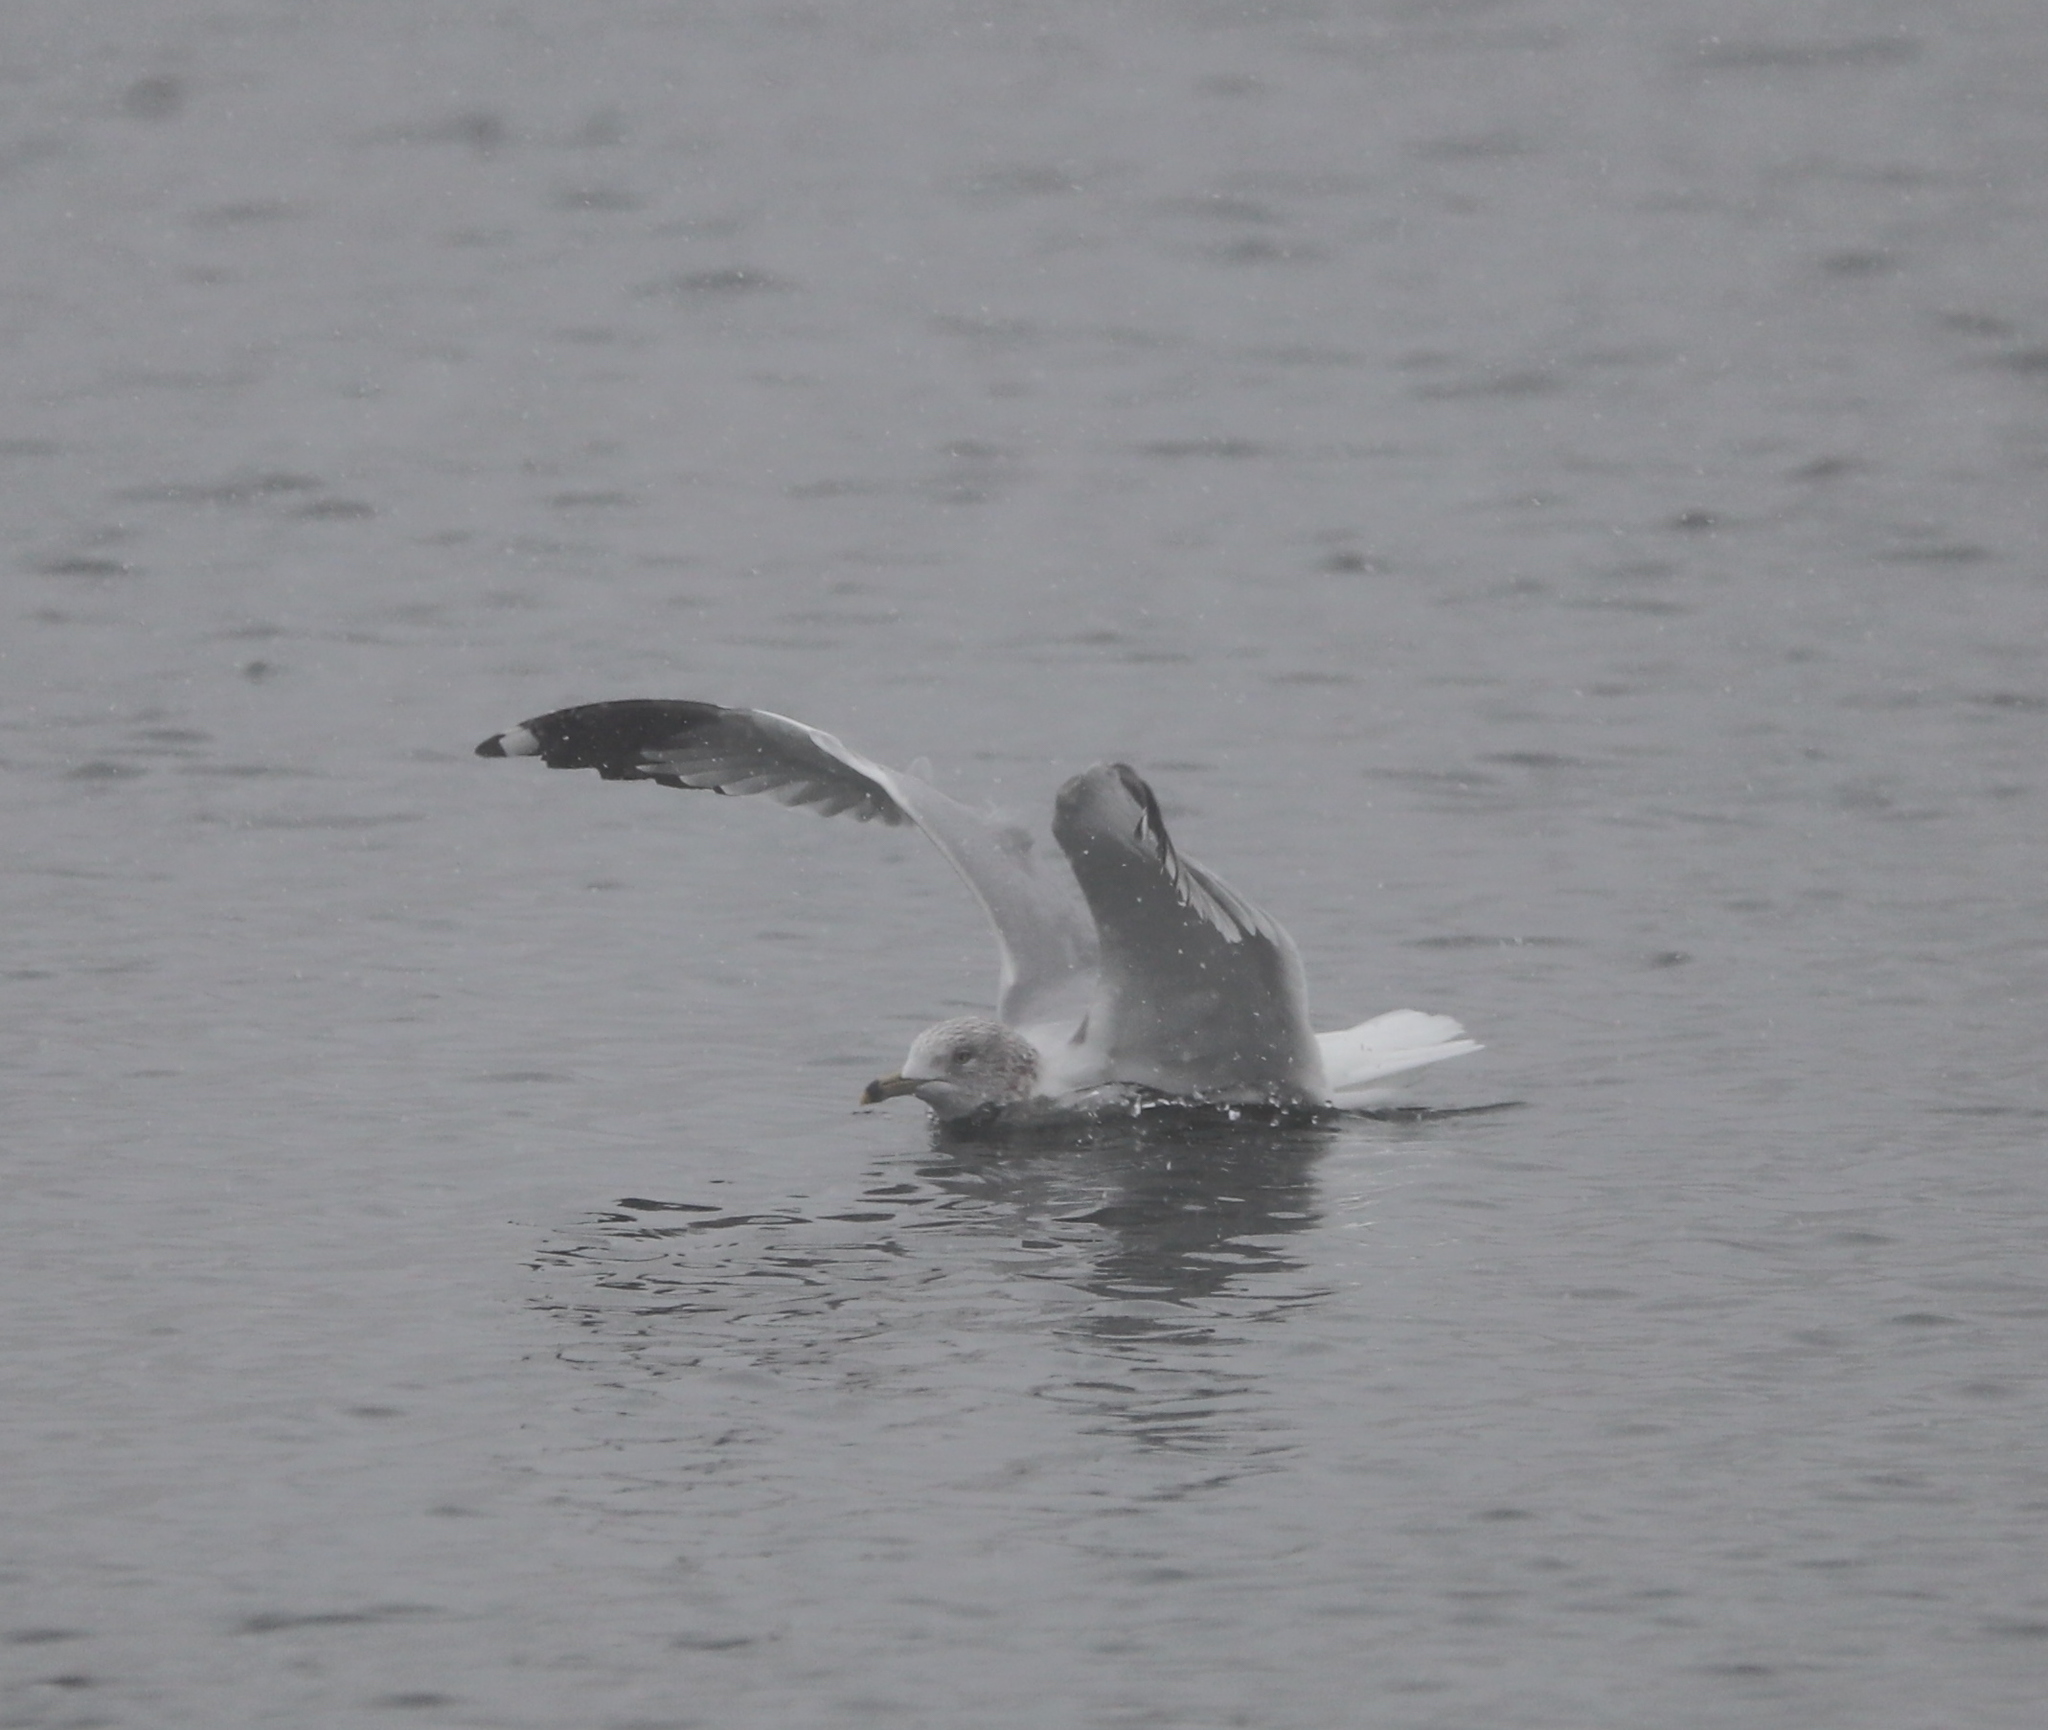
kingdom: Animalia
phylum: Chordata
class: Aves
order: Charadriiformes
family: Laridae
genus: Larus
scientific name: Larus delawarensis
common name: Ring-billed gull
